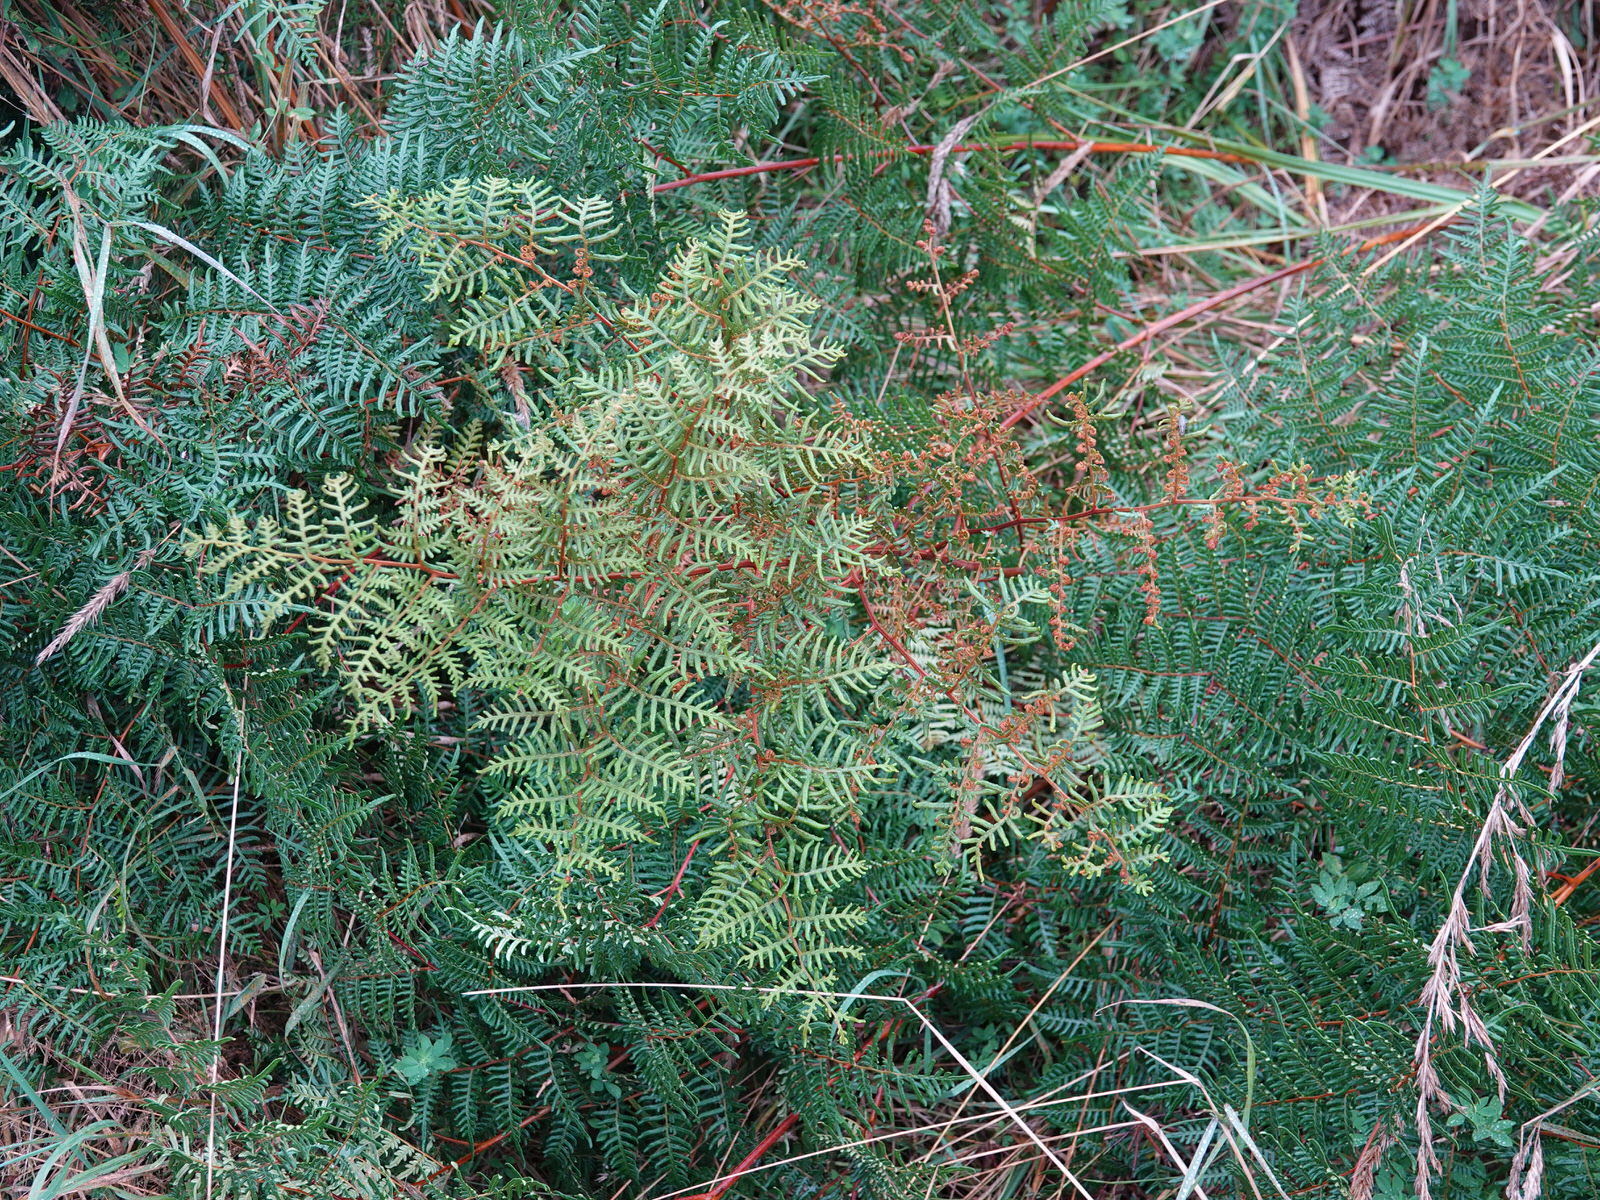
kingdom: Plantae
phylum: Tracheophyta
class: Polypodiopsida
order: Polypodiales
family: Dennstaedtiaceae
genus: Pteridium
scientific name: Pteridium esculentum
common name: Bracken fern
